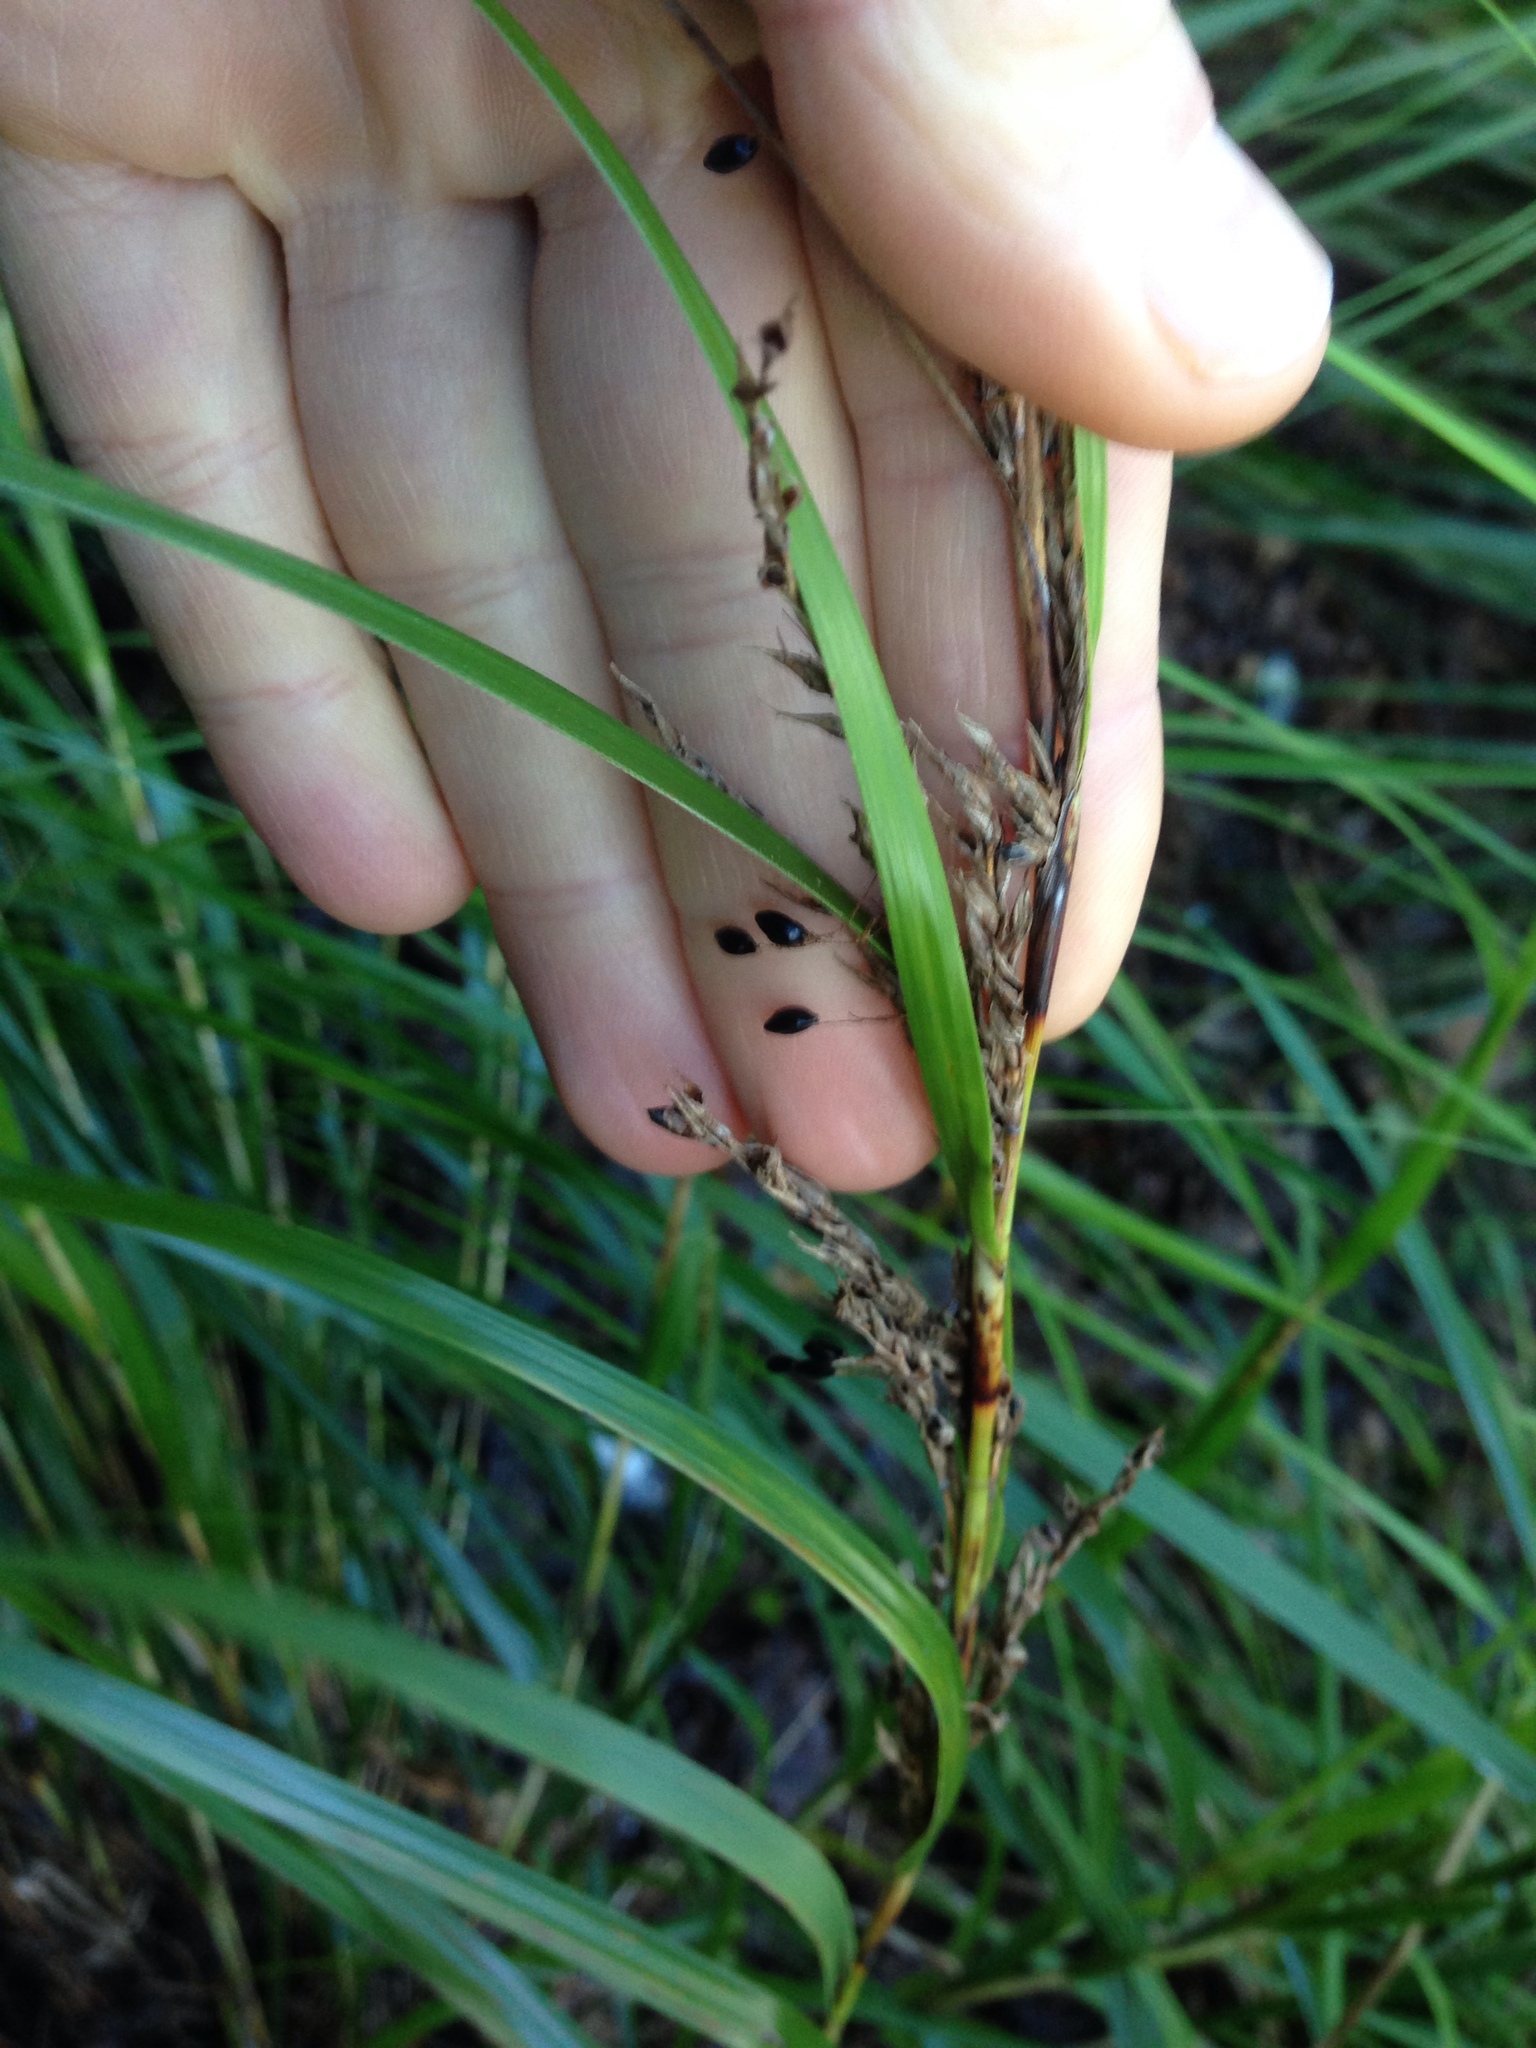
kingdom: Plantae
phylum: Tracheophyta
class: Liliopsida
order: Poales
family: Cyperaceae
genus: Gahnia
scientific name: Gahnia lacera
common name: Sawsedge
